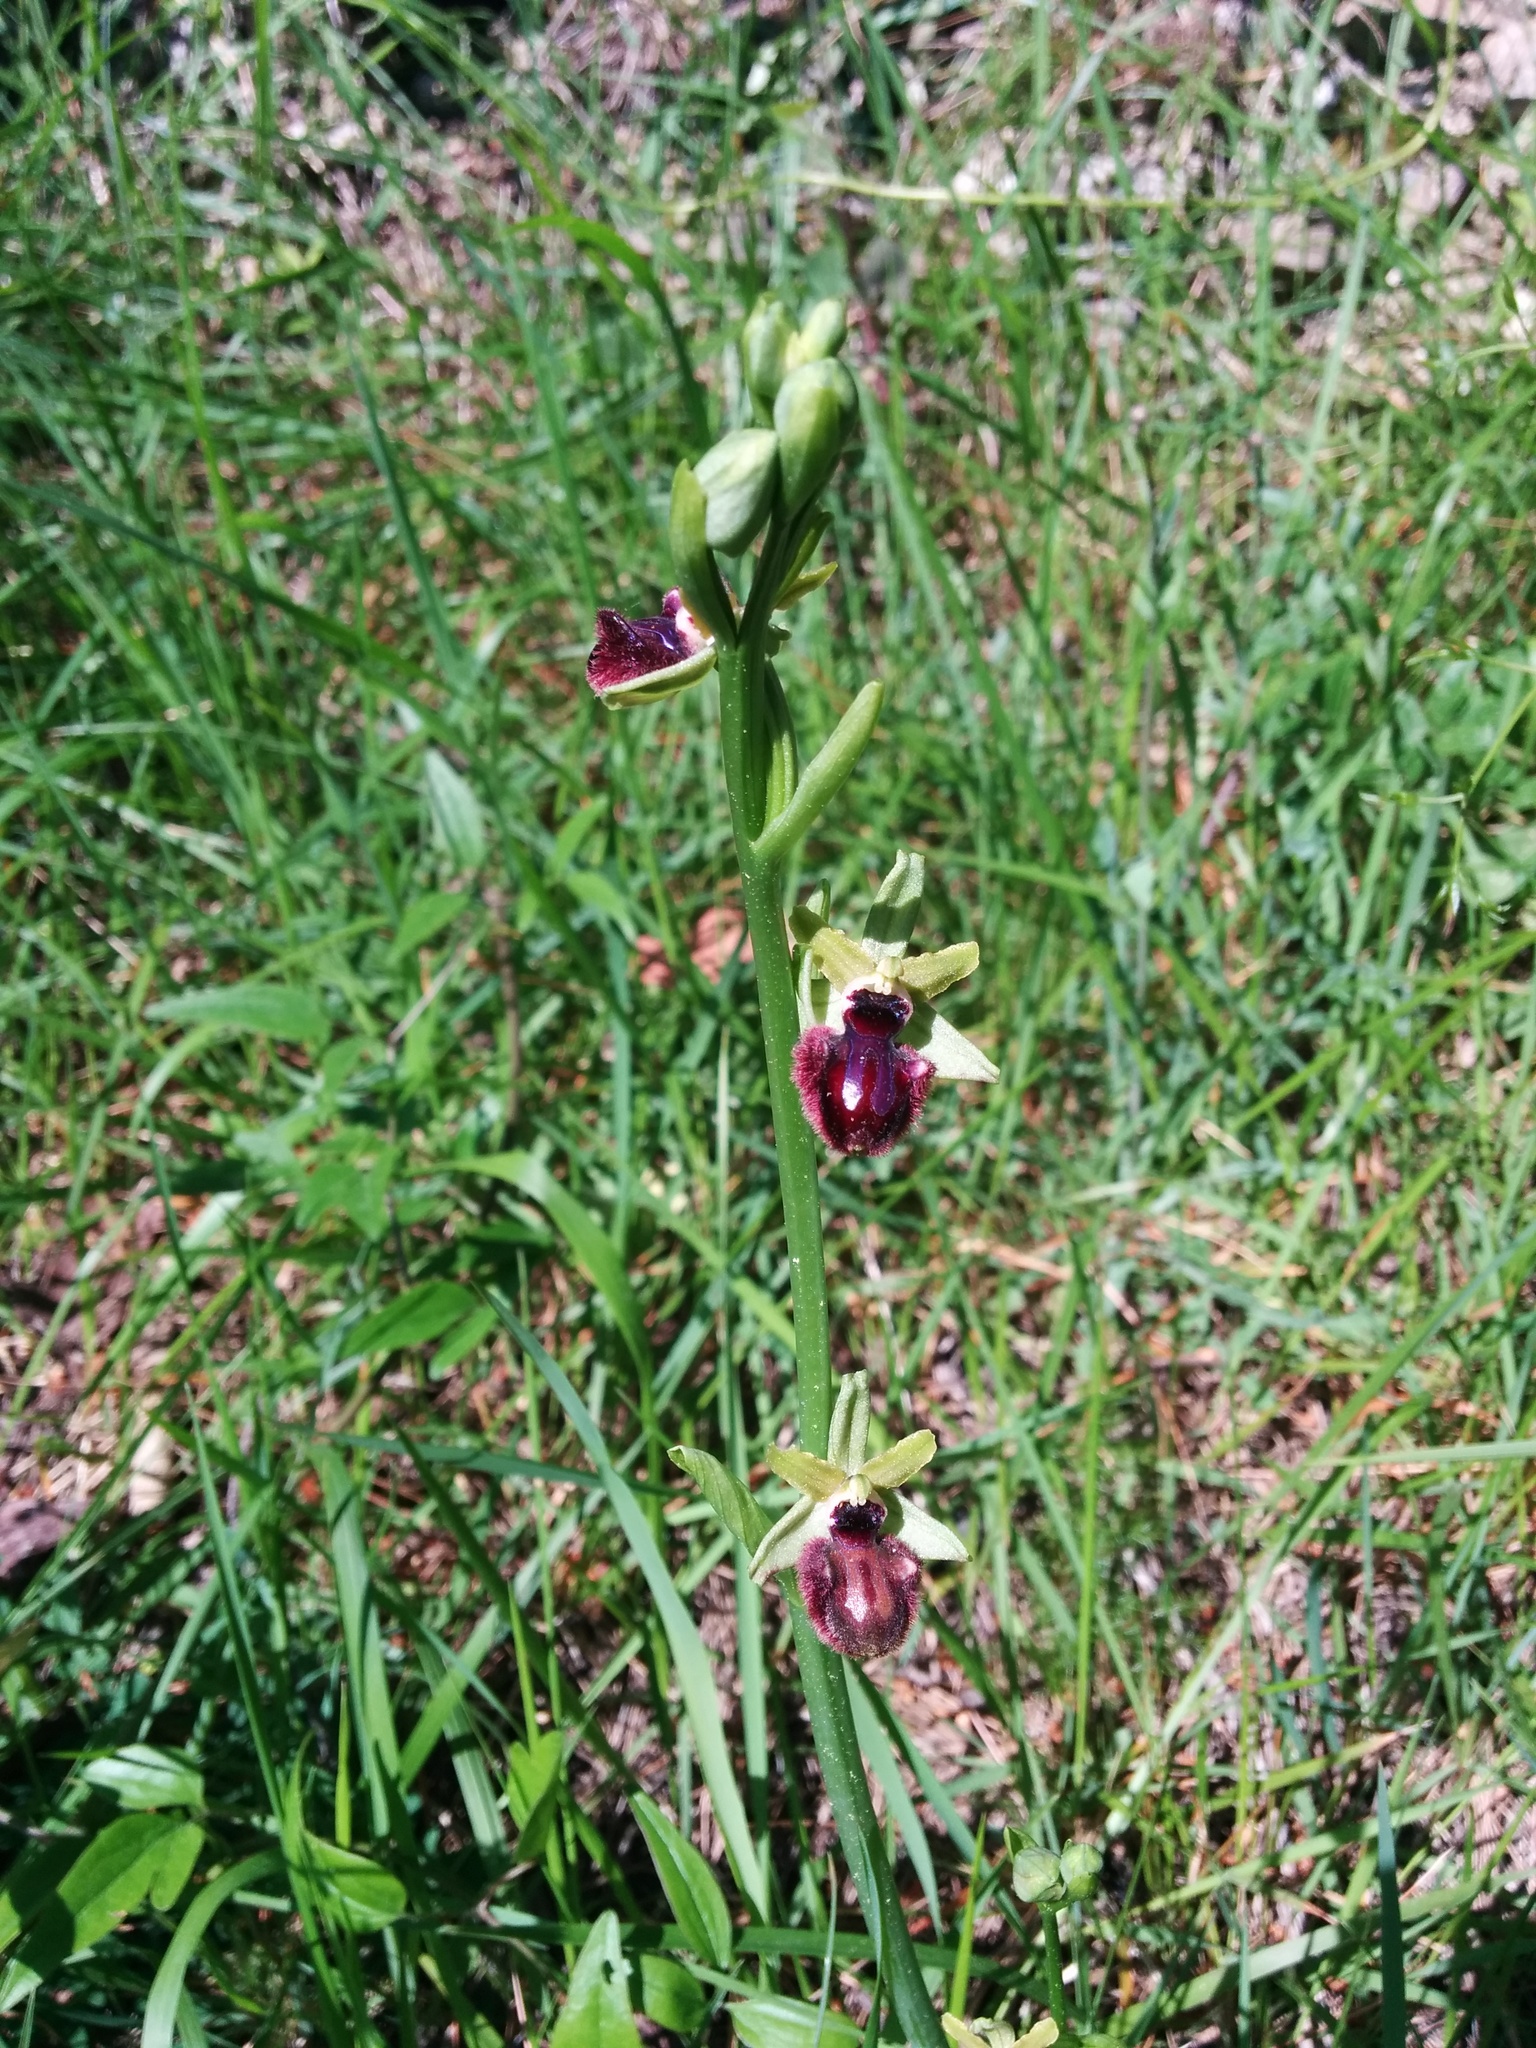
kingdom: Plantae
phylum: Tracheophyta
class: Liliopsida
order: Asparagales
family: Orchidaceae
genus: Ophrys
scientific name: Ophrys sphegodes
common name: Early spider-orchid
